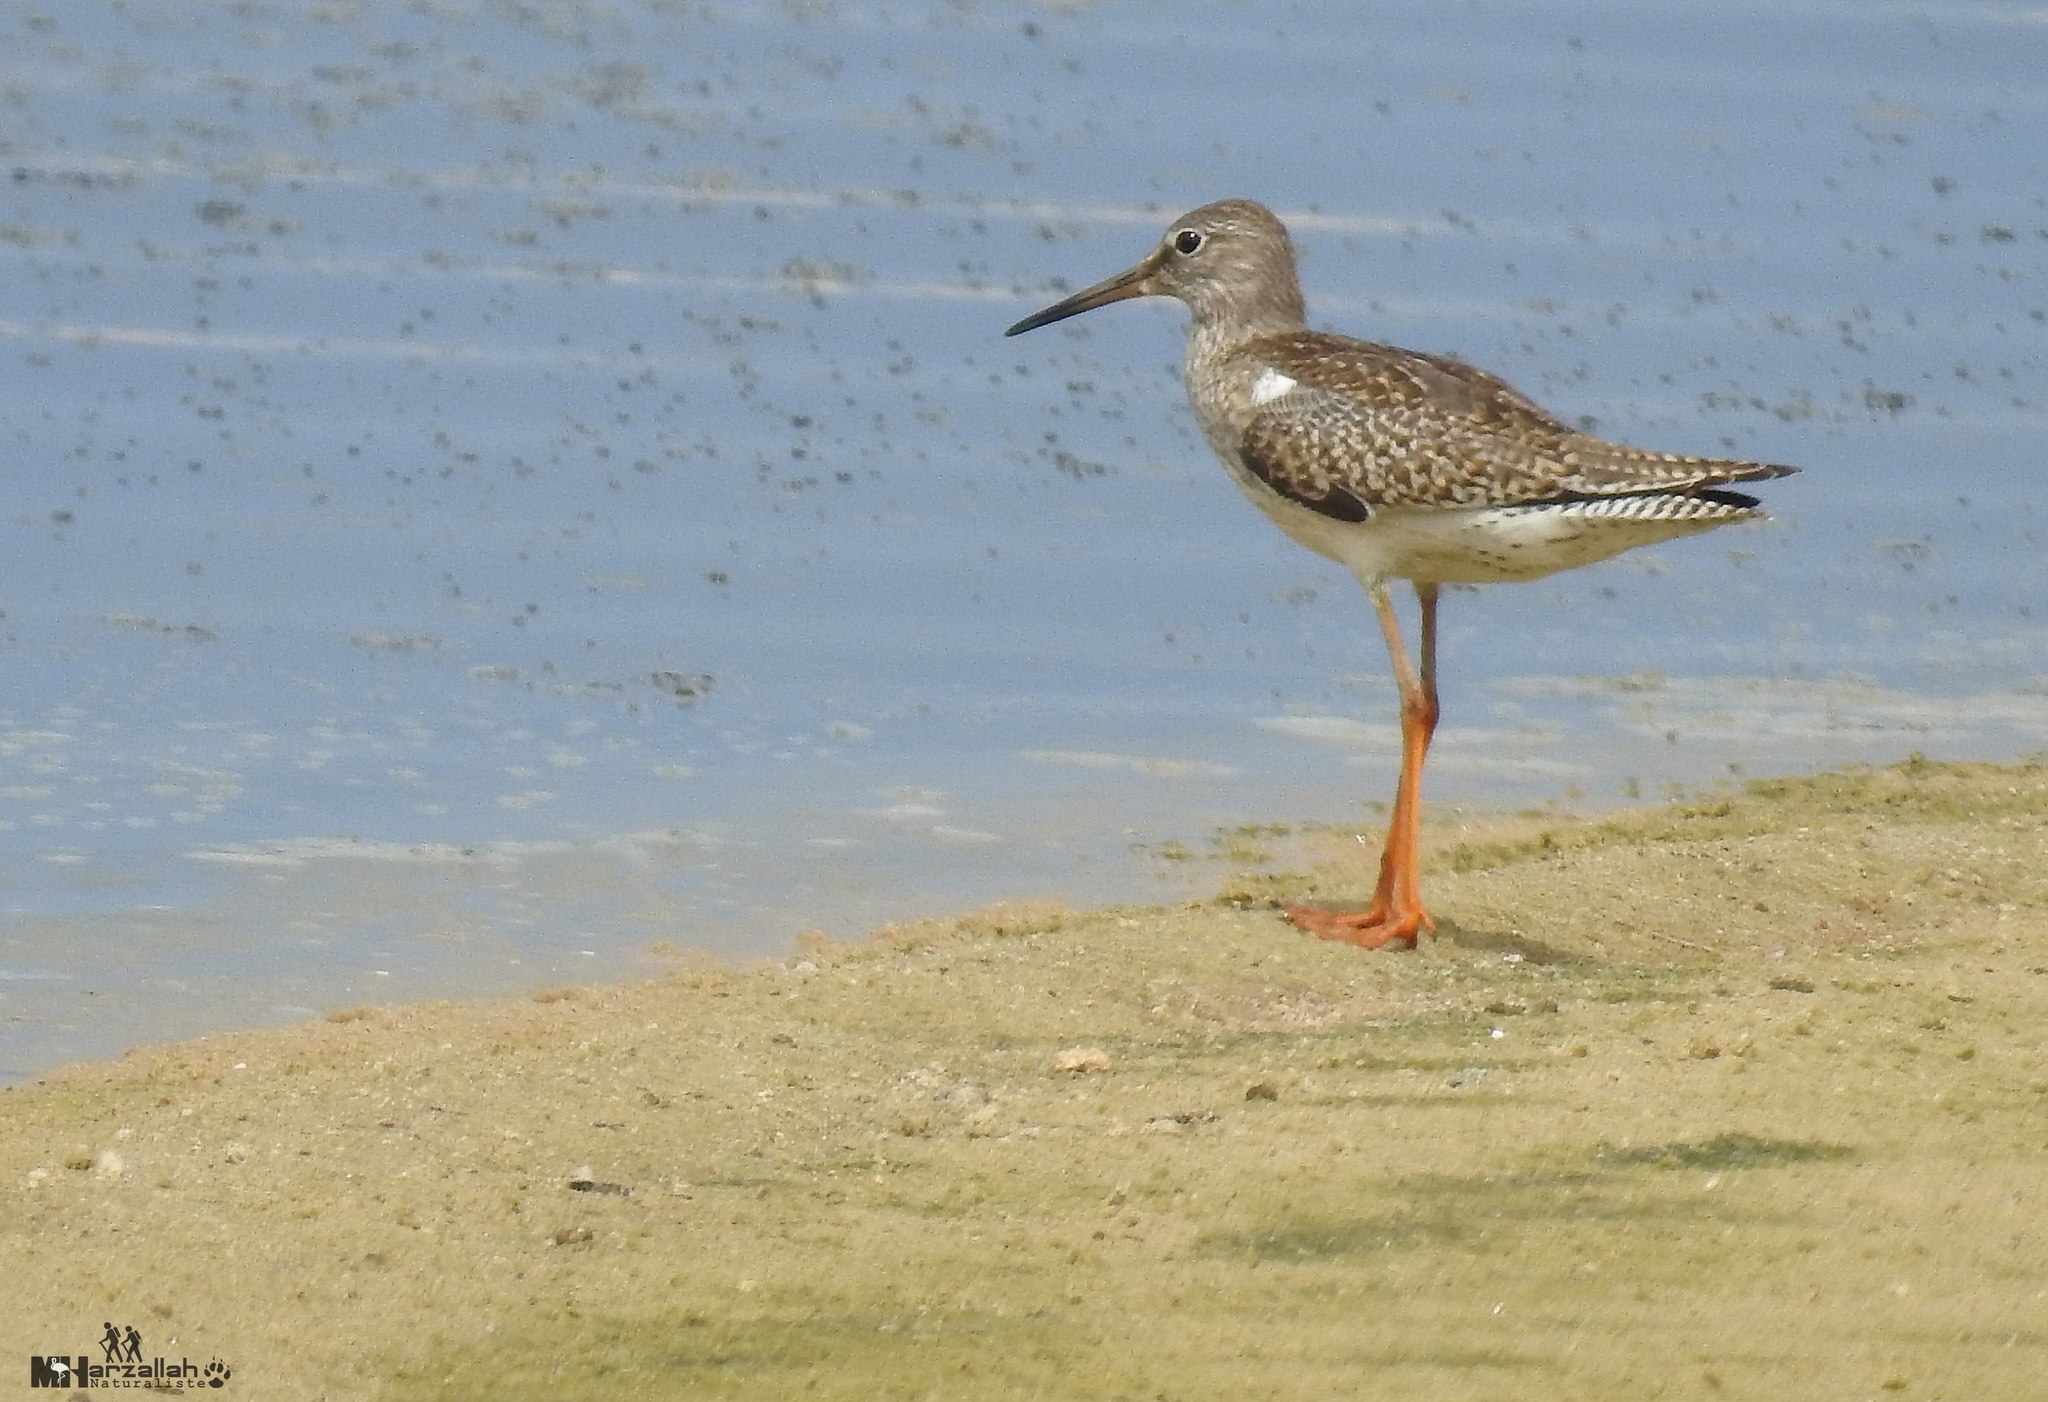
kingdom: Animalia
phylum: Chordata
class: Aves
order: Charadriiformes
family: Scolopacidae
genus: Tringa
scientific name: Tringa totanus
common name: Common redshank
